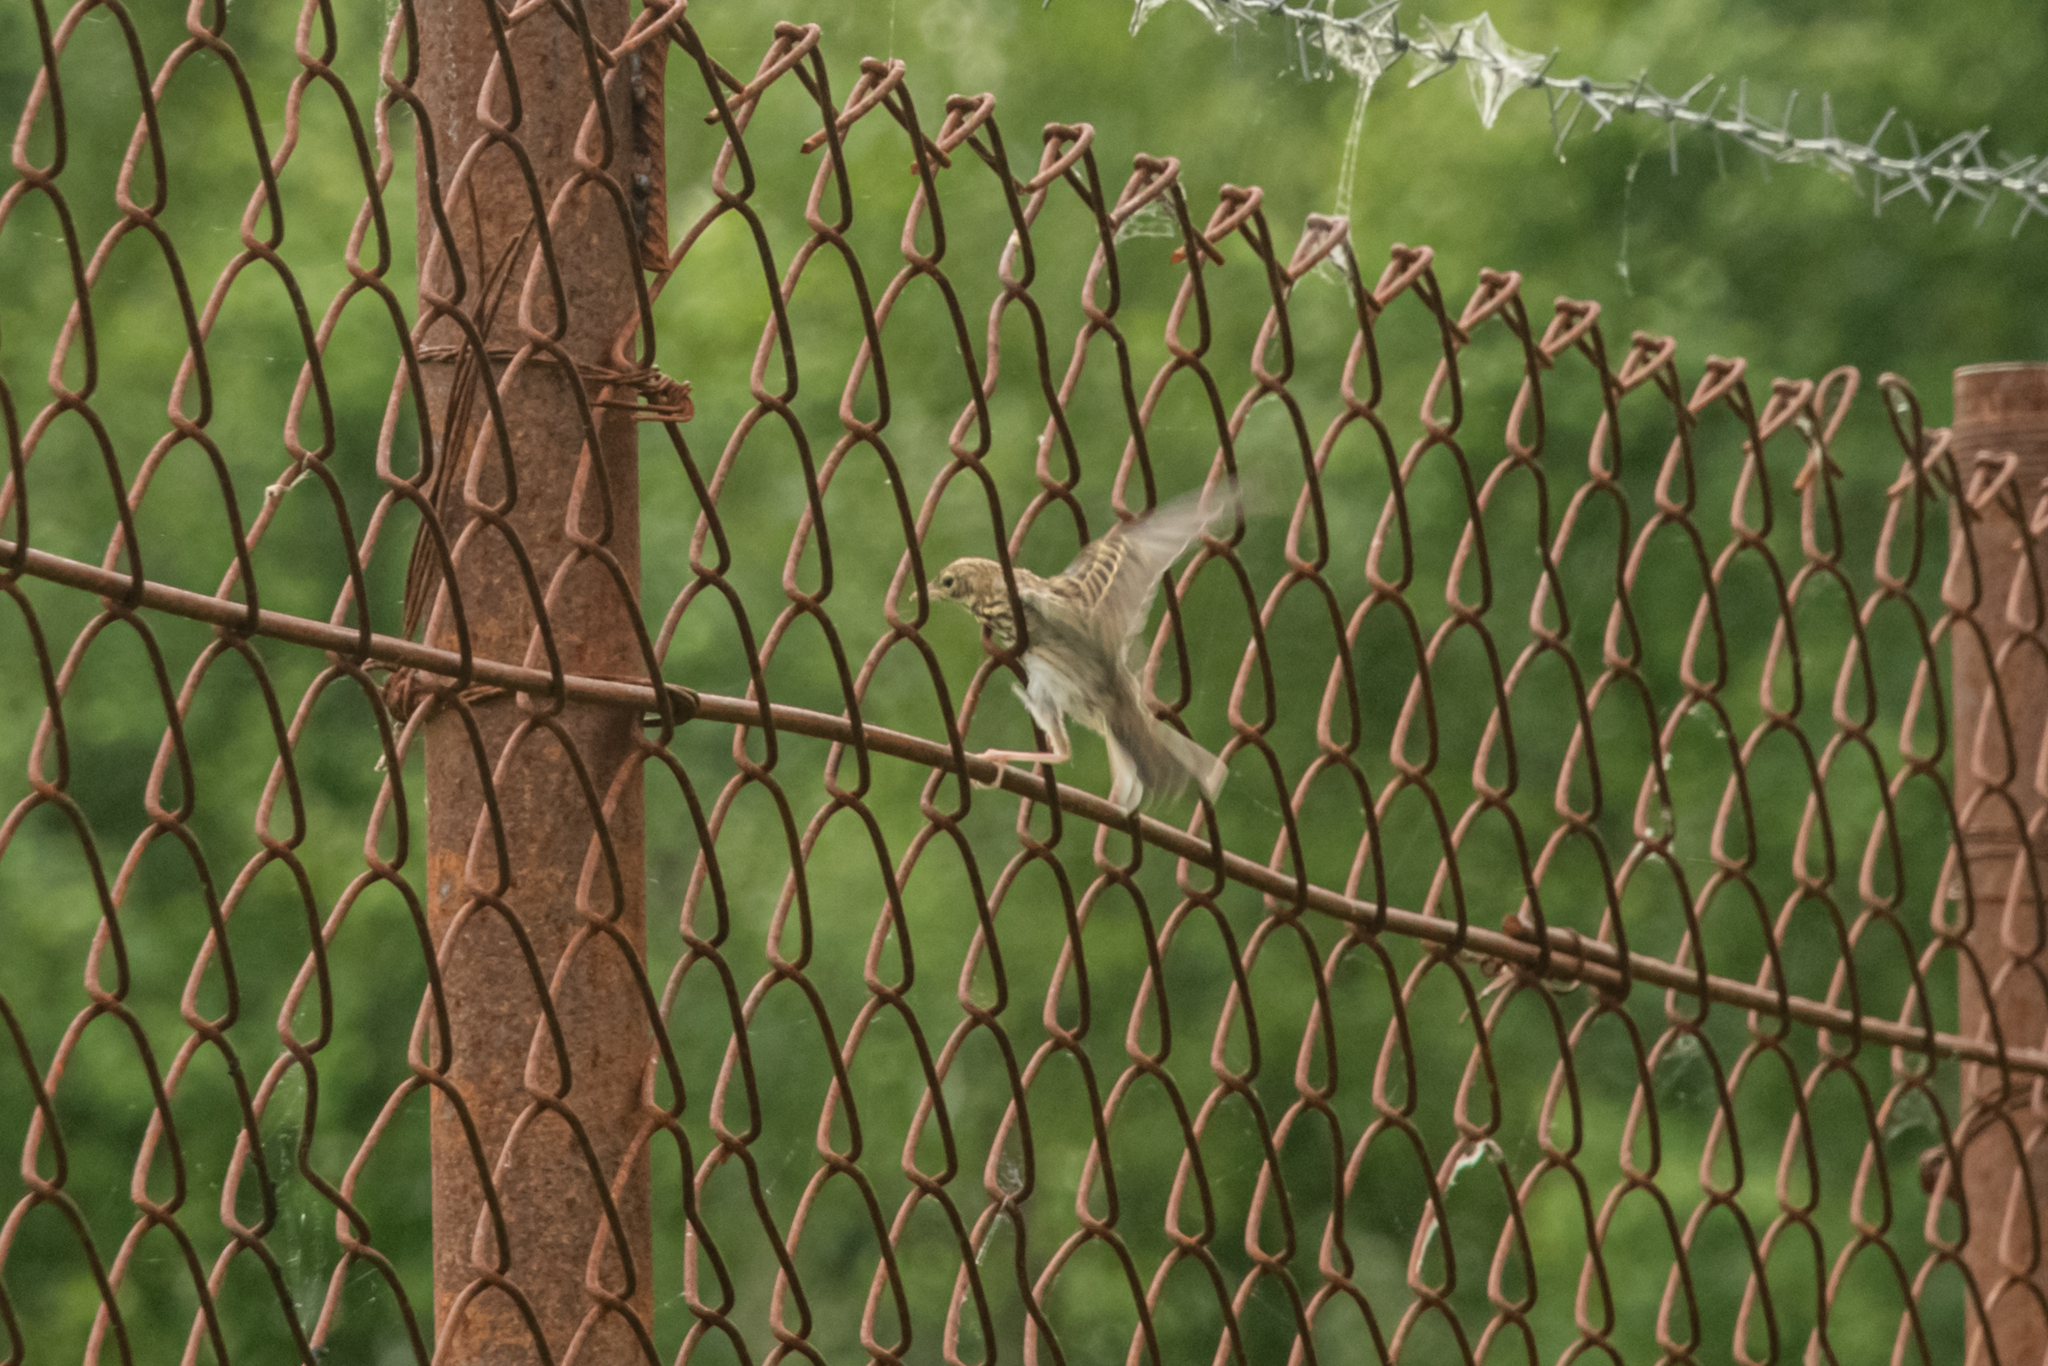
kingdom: Animalia
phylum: Chordata
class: Aves
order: Passeriformes
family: Motacillidae
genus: Anthus
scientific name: Anthus trivialis
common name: Tree pipit
